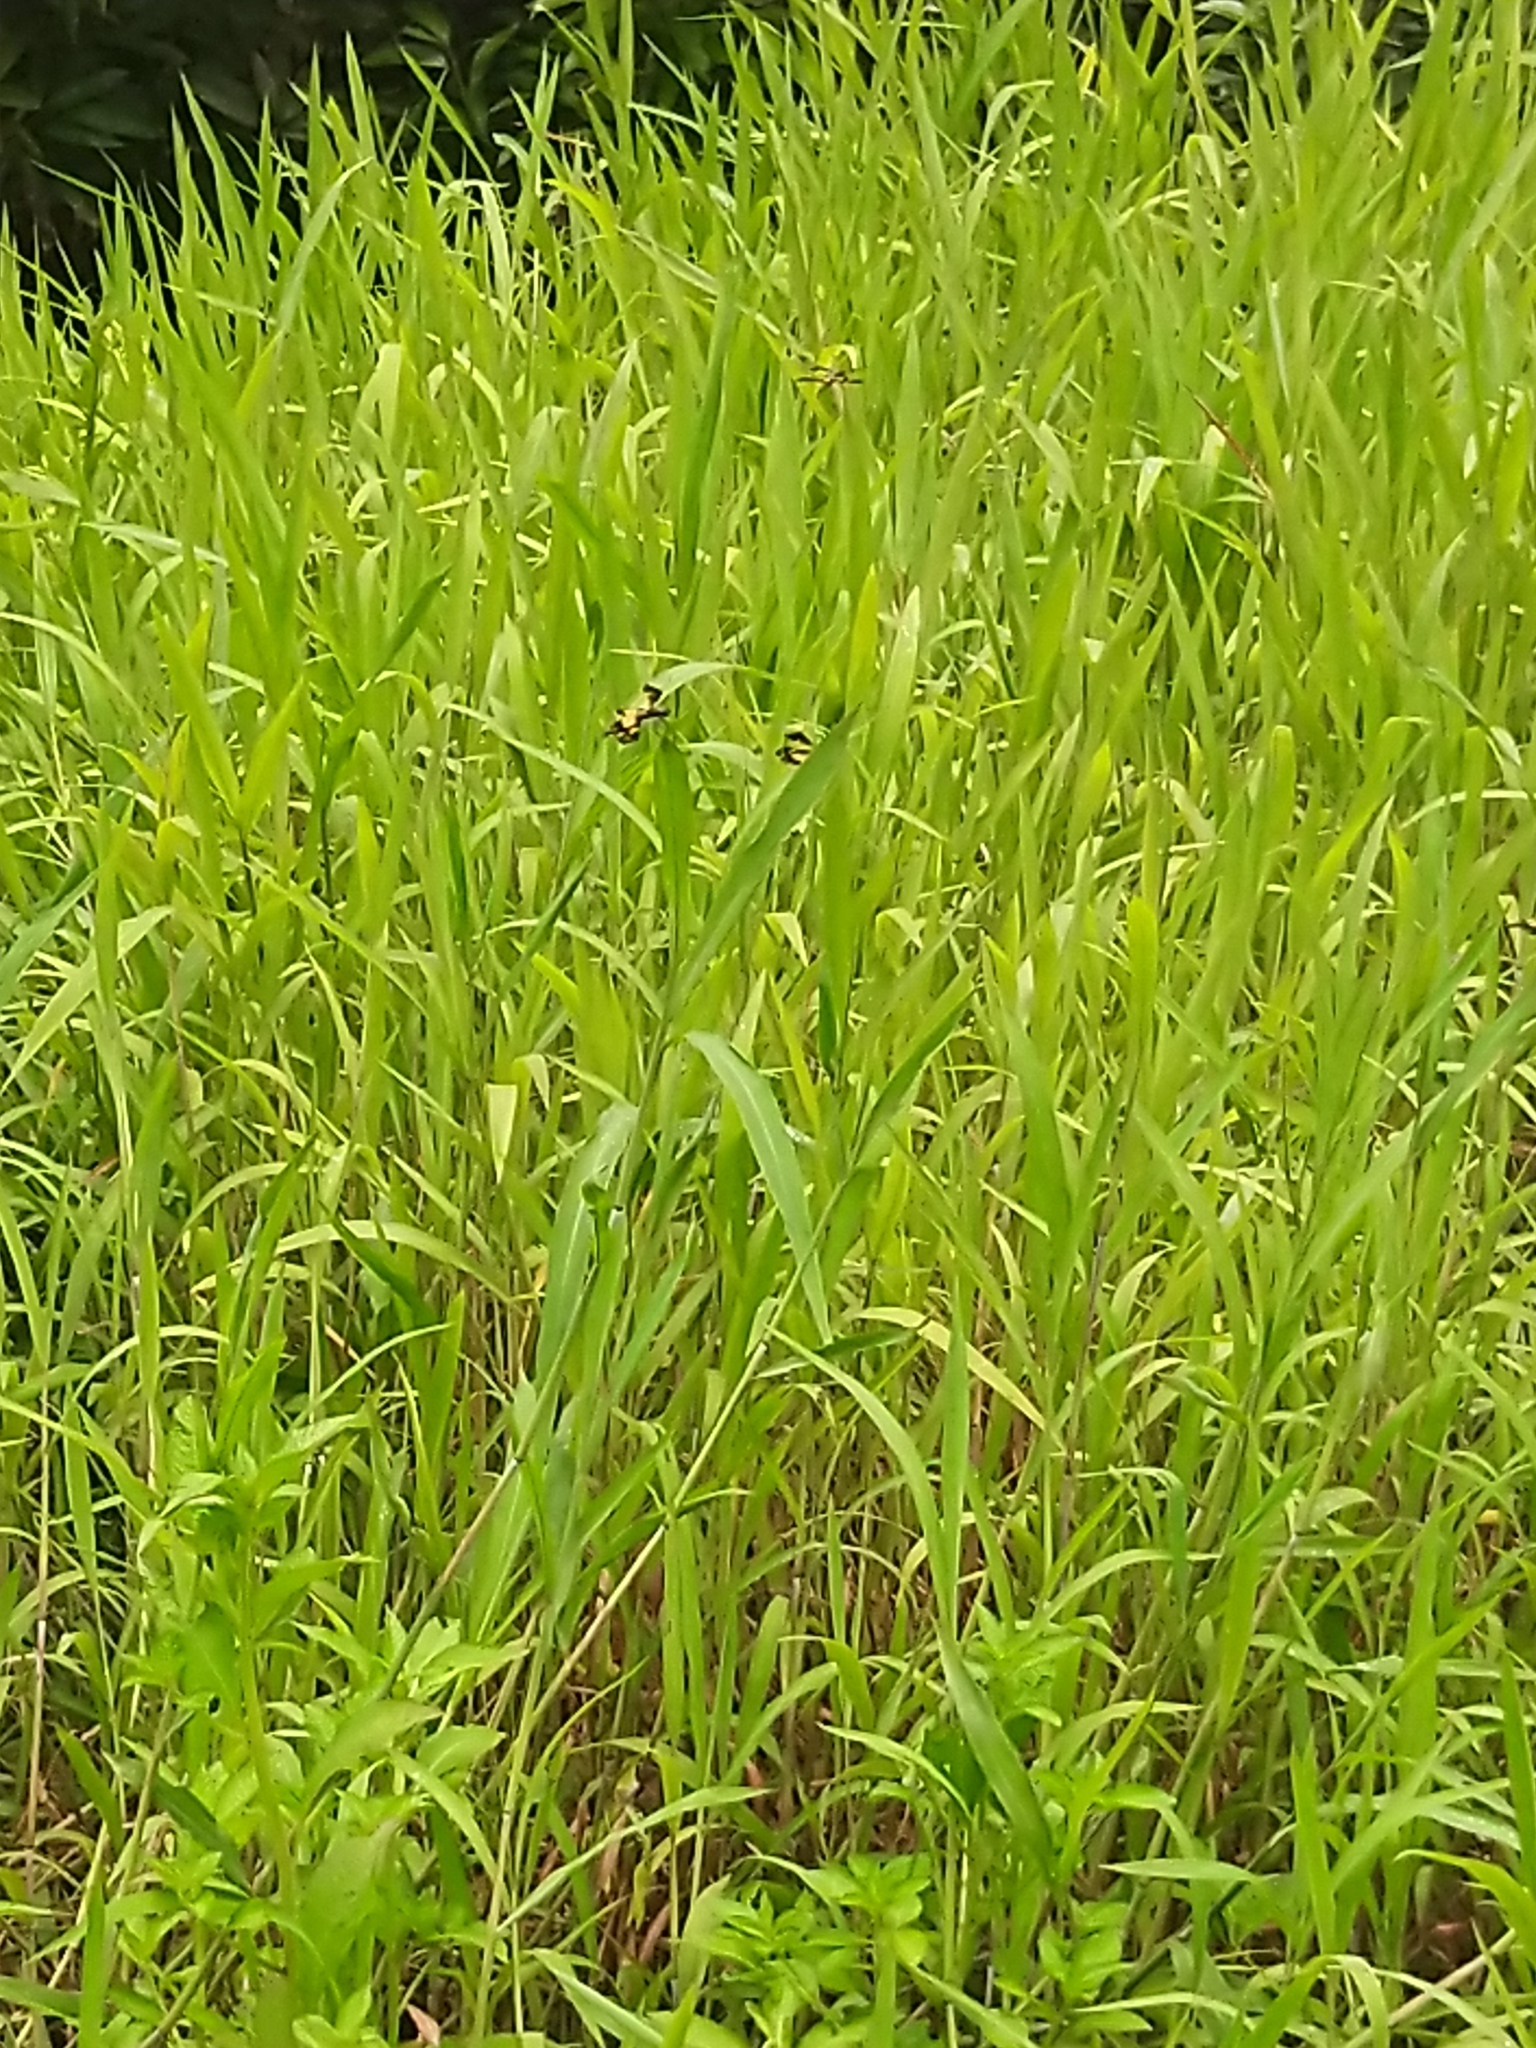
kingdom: Animalia
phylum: Arthropoda
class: Insecta
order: Odonata
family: Libellulidae
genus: Rhyothemis
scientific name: Rhyothemis variegata
